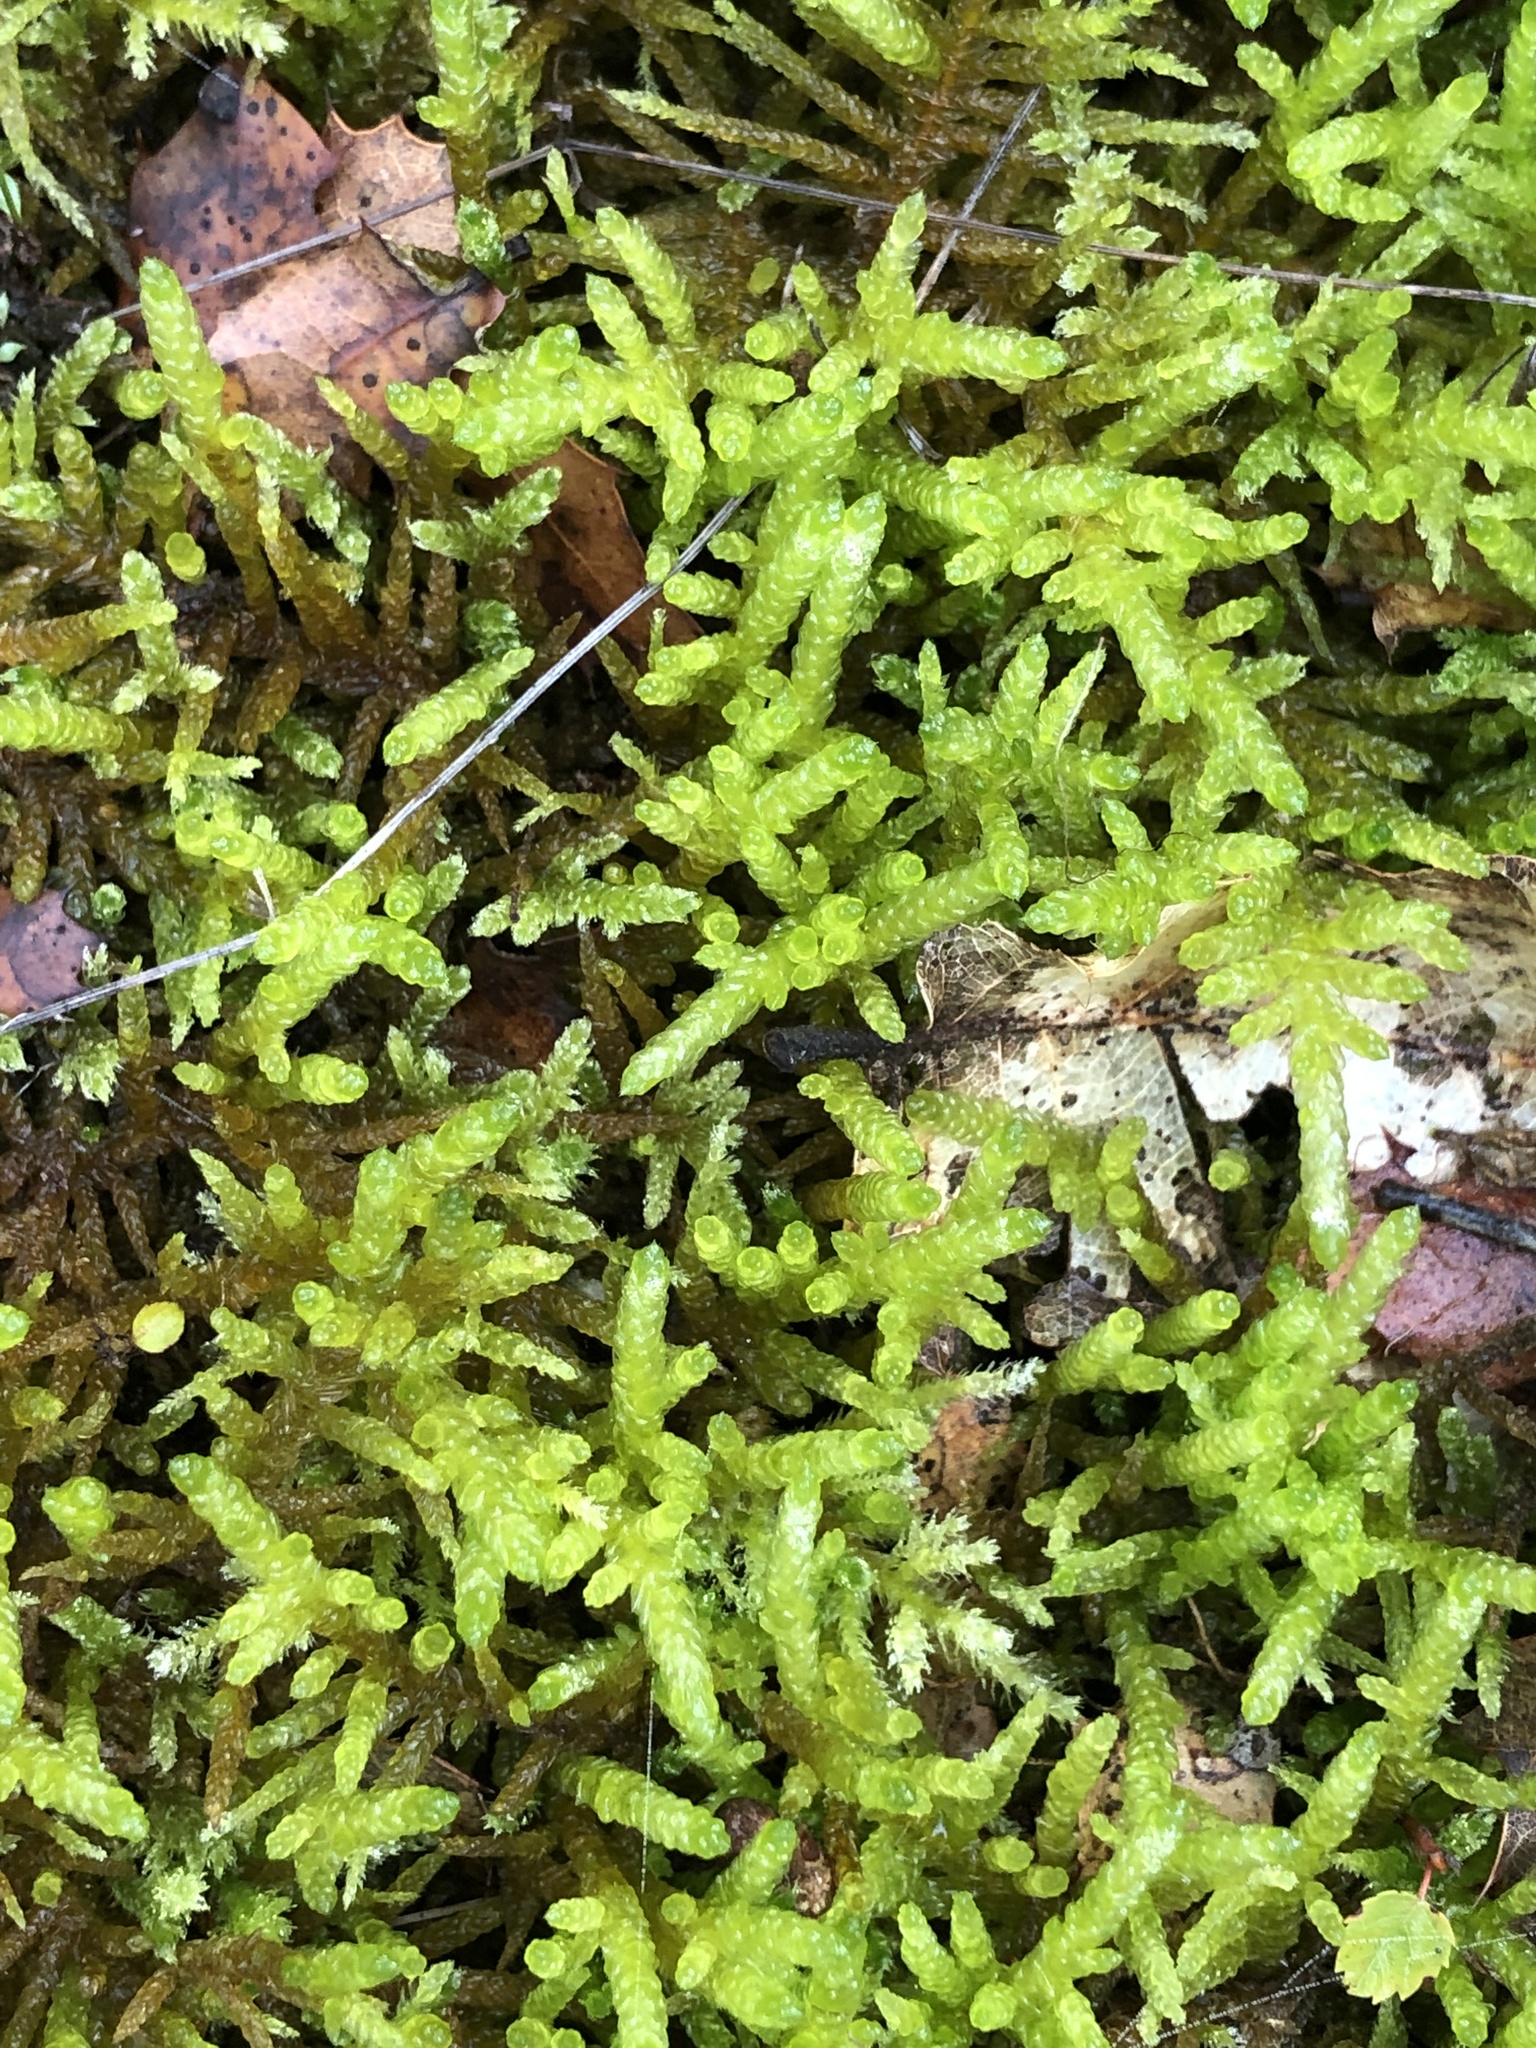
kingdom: Plantae
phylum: Bryophyta
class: Bryopsida
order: Hypnales
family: Brachytheciaceae
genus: Pseudoscleropodium
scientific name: Pseudoscleropodium purum
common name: Neat feather-moss
